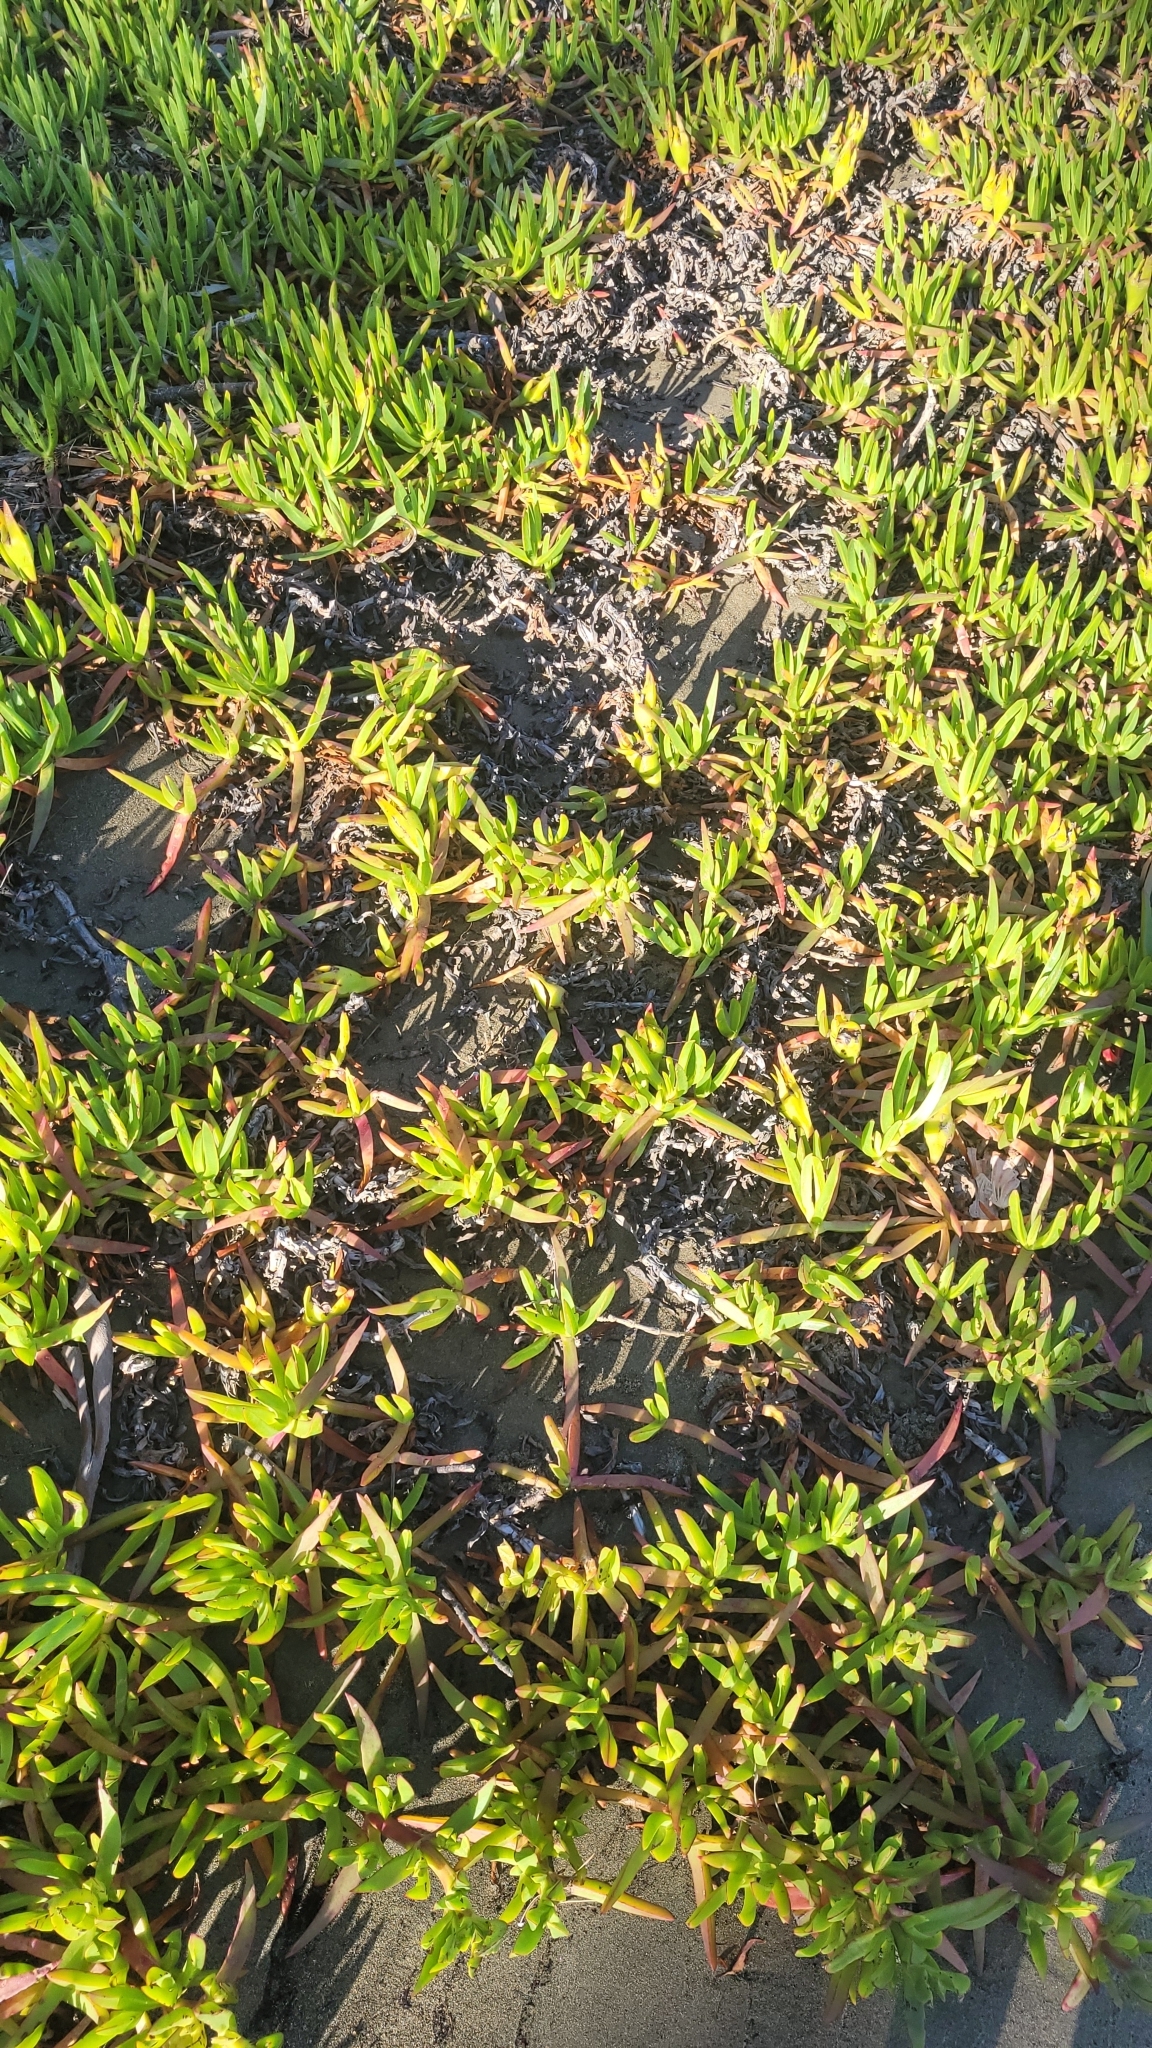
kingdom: Plantae
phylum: Tracheophyta
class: Magnoliopsida
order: Caryophyllales
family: Aizoaceae
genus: Carpobrotus
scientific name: Carpobrotus edulis
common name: Hottentot-fig
